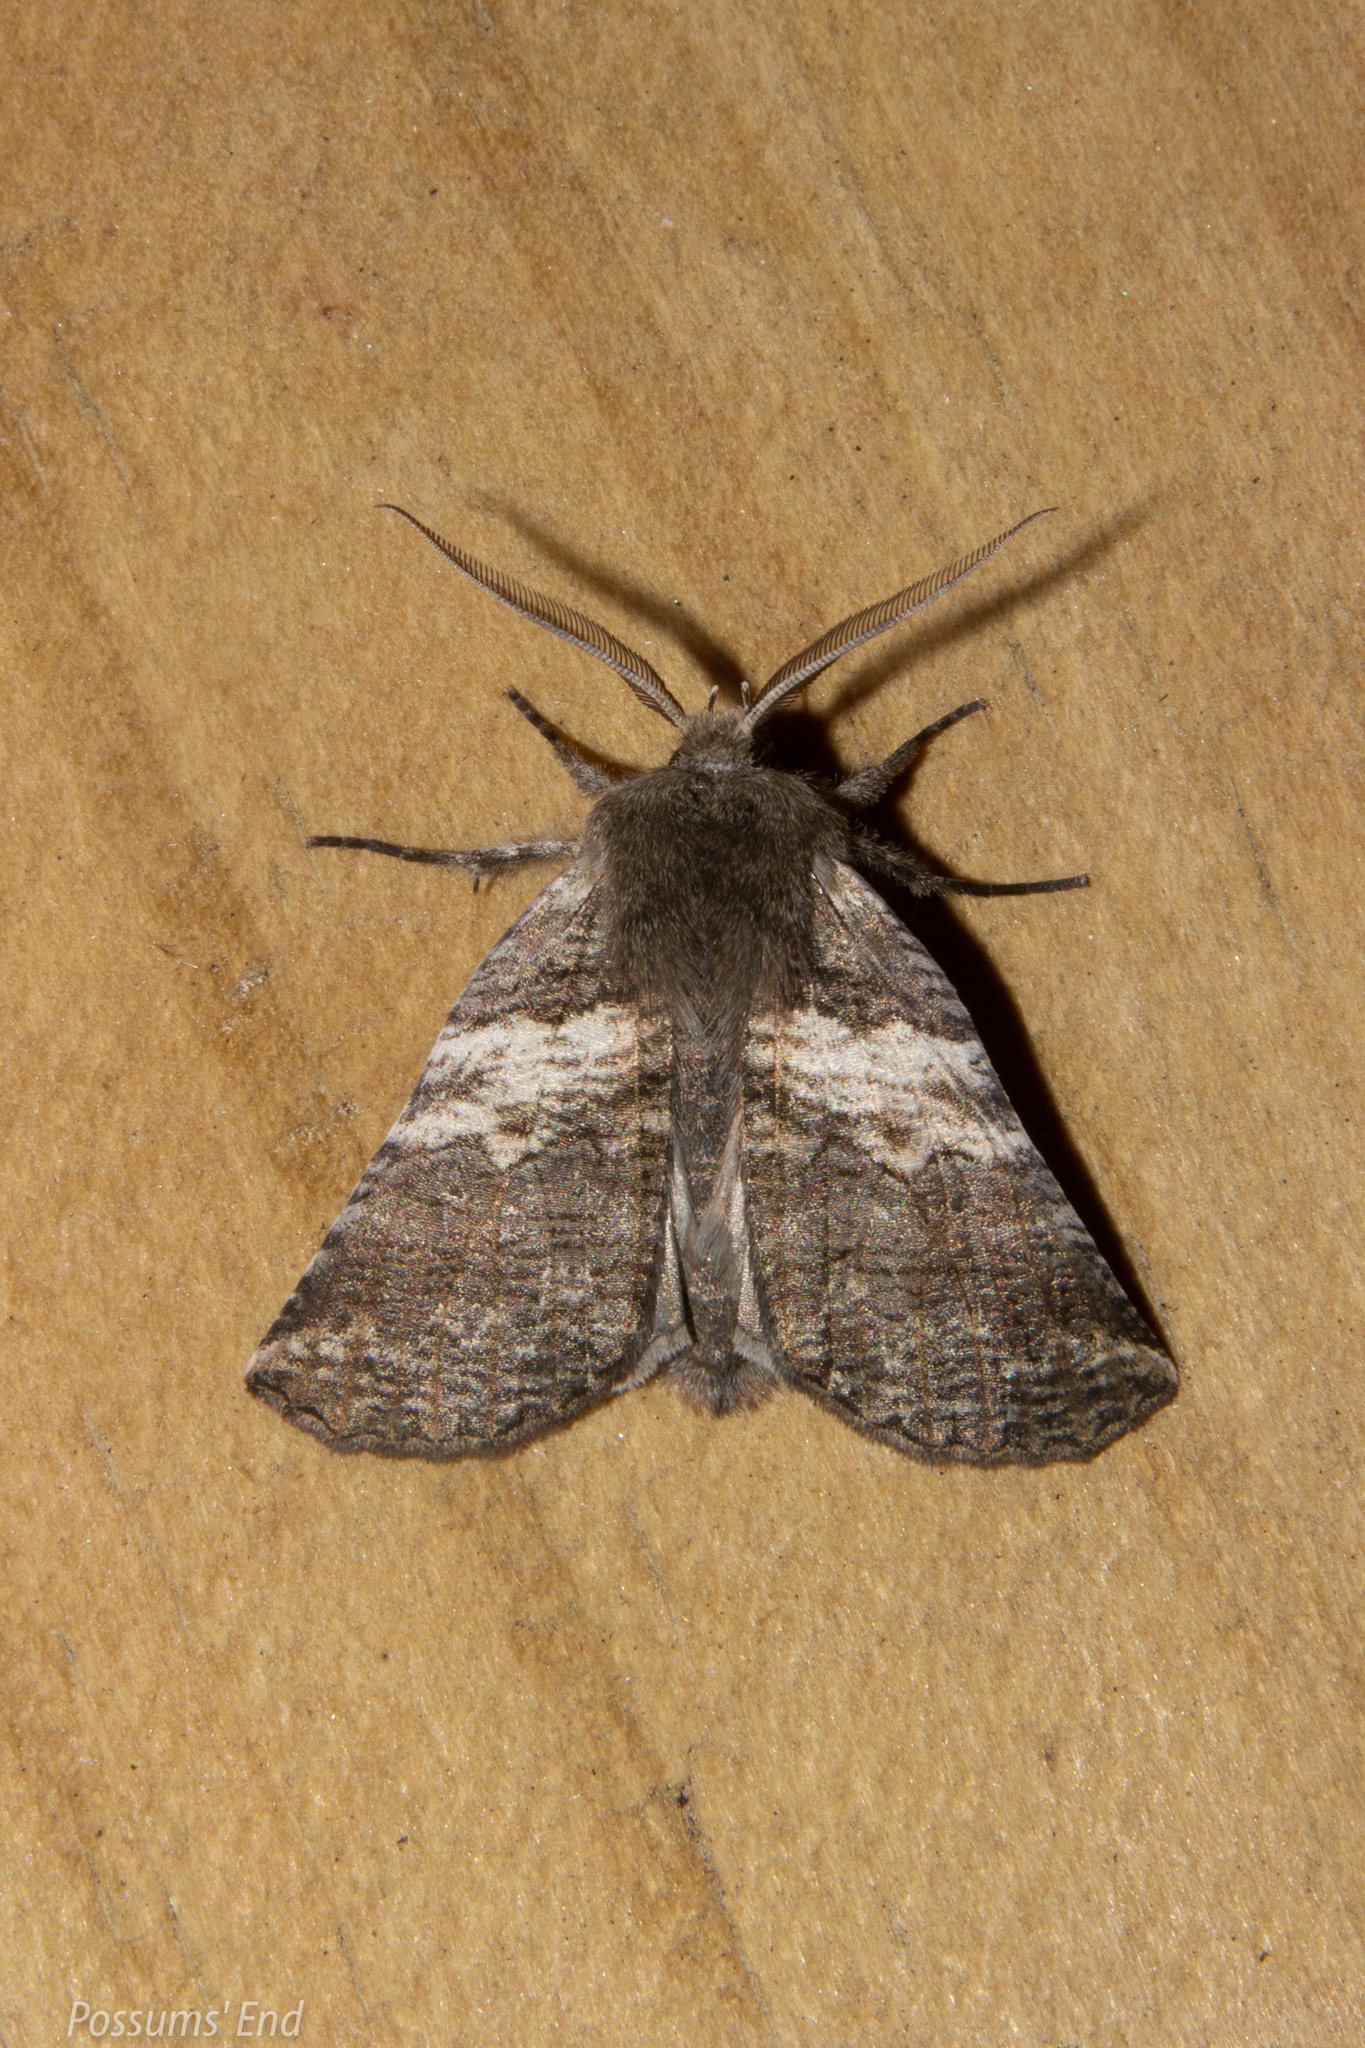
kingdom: Animalia
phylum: Arthropoda
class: Insecta
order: Lepidoptera
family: Geometridae
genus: Declana
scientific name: Declana
